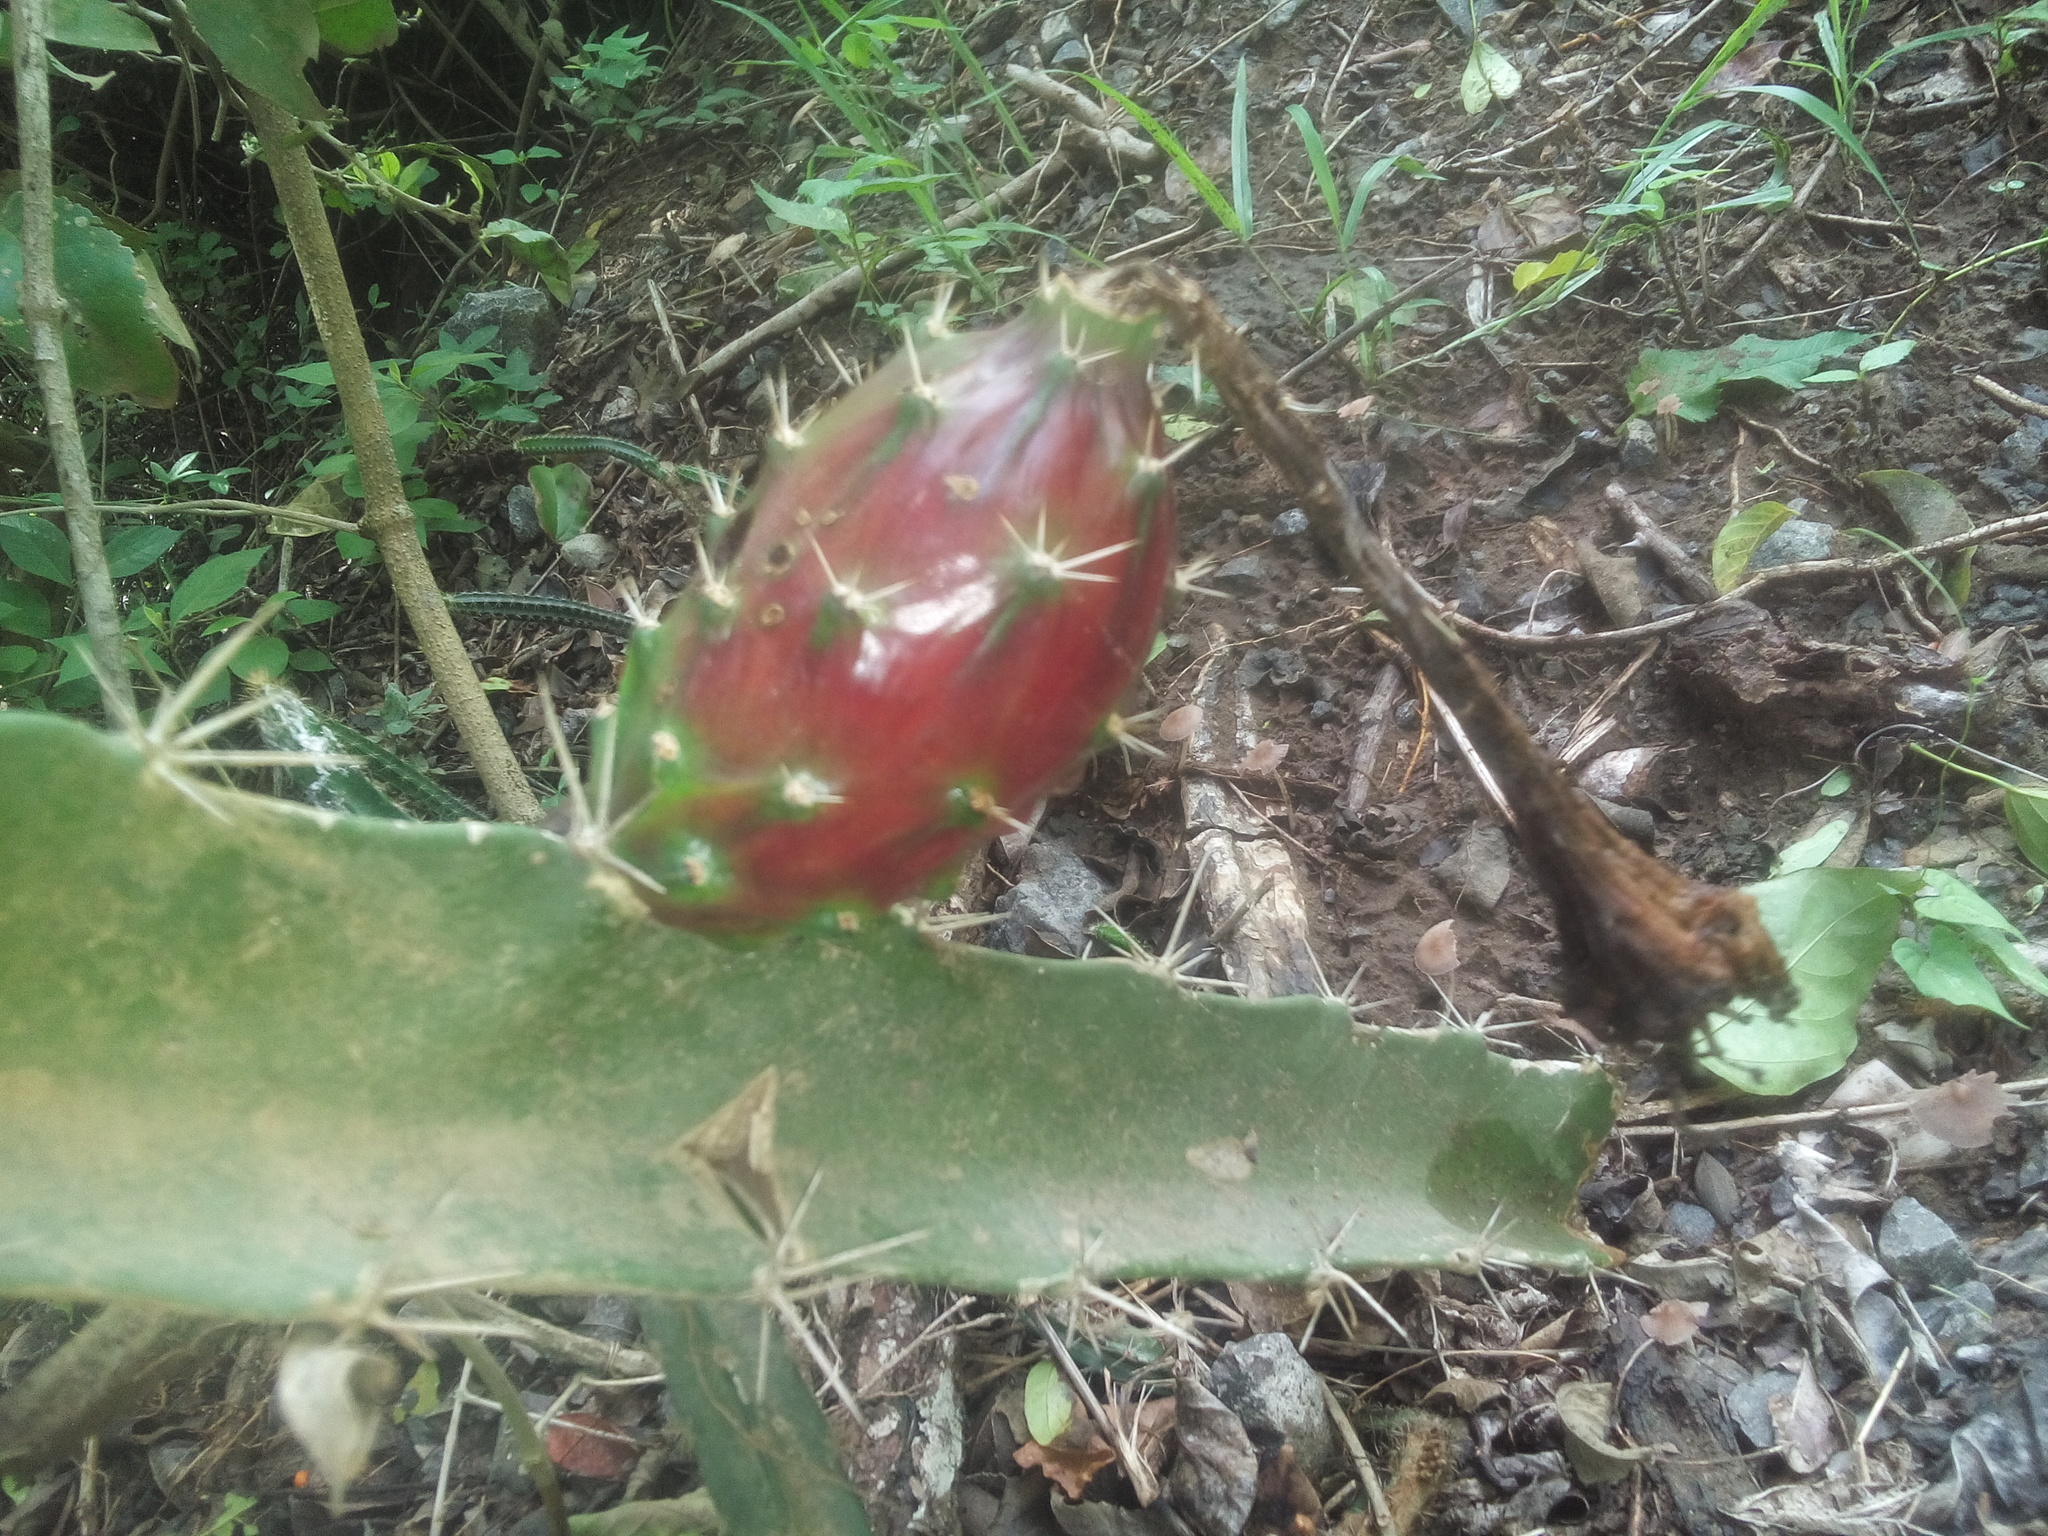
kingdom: Plantae
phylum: Tracheophyta
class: Magnoliopsida
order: Caryophyllales
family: Cactaceae
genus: Acanthocereus
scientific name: Acanthocereus tetragonus
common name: Triangle cactus
